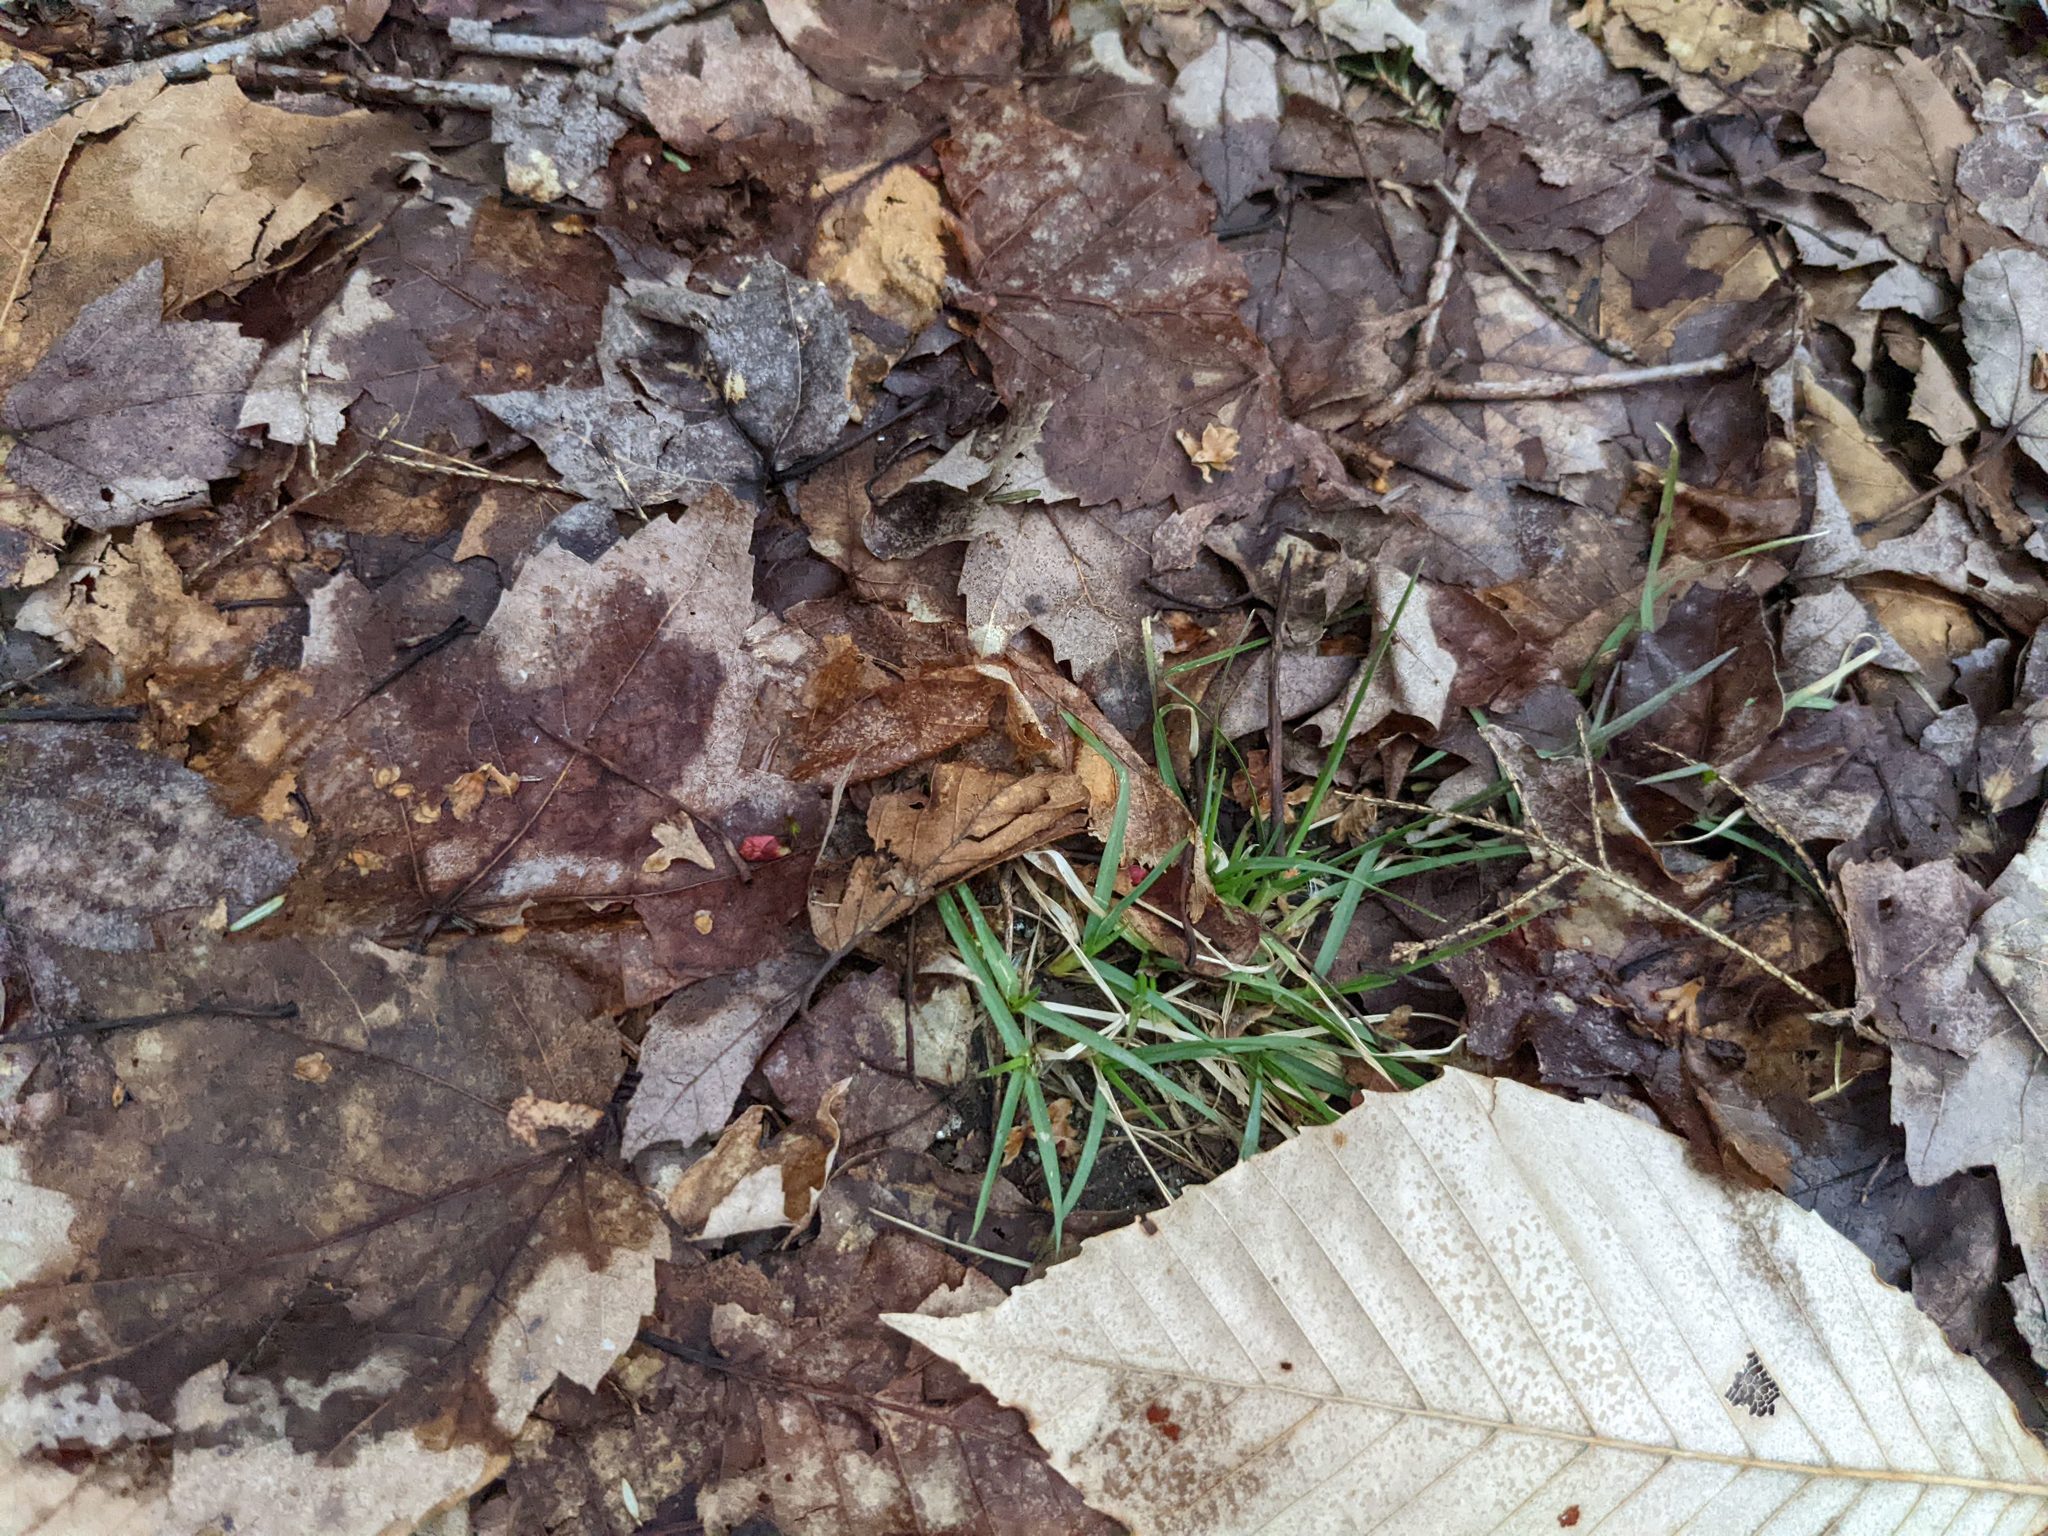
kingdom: Plantae
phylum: Tracheophyta
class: Magnoliopsida
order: Fagales
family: Fagaceae
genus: Fagus
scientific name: Fagus grandifolia
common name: American beech
